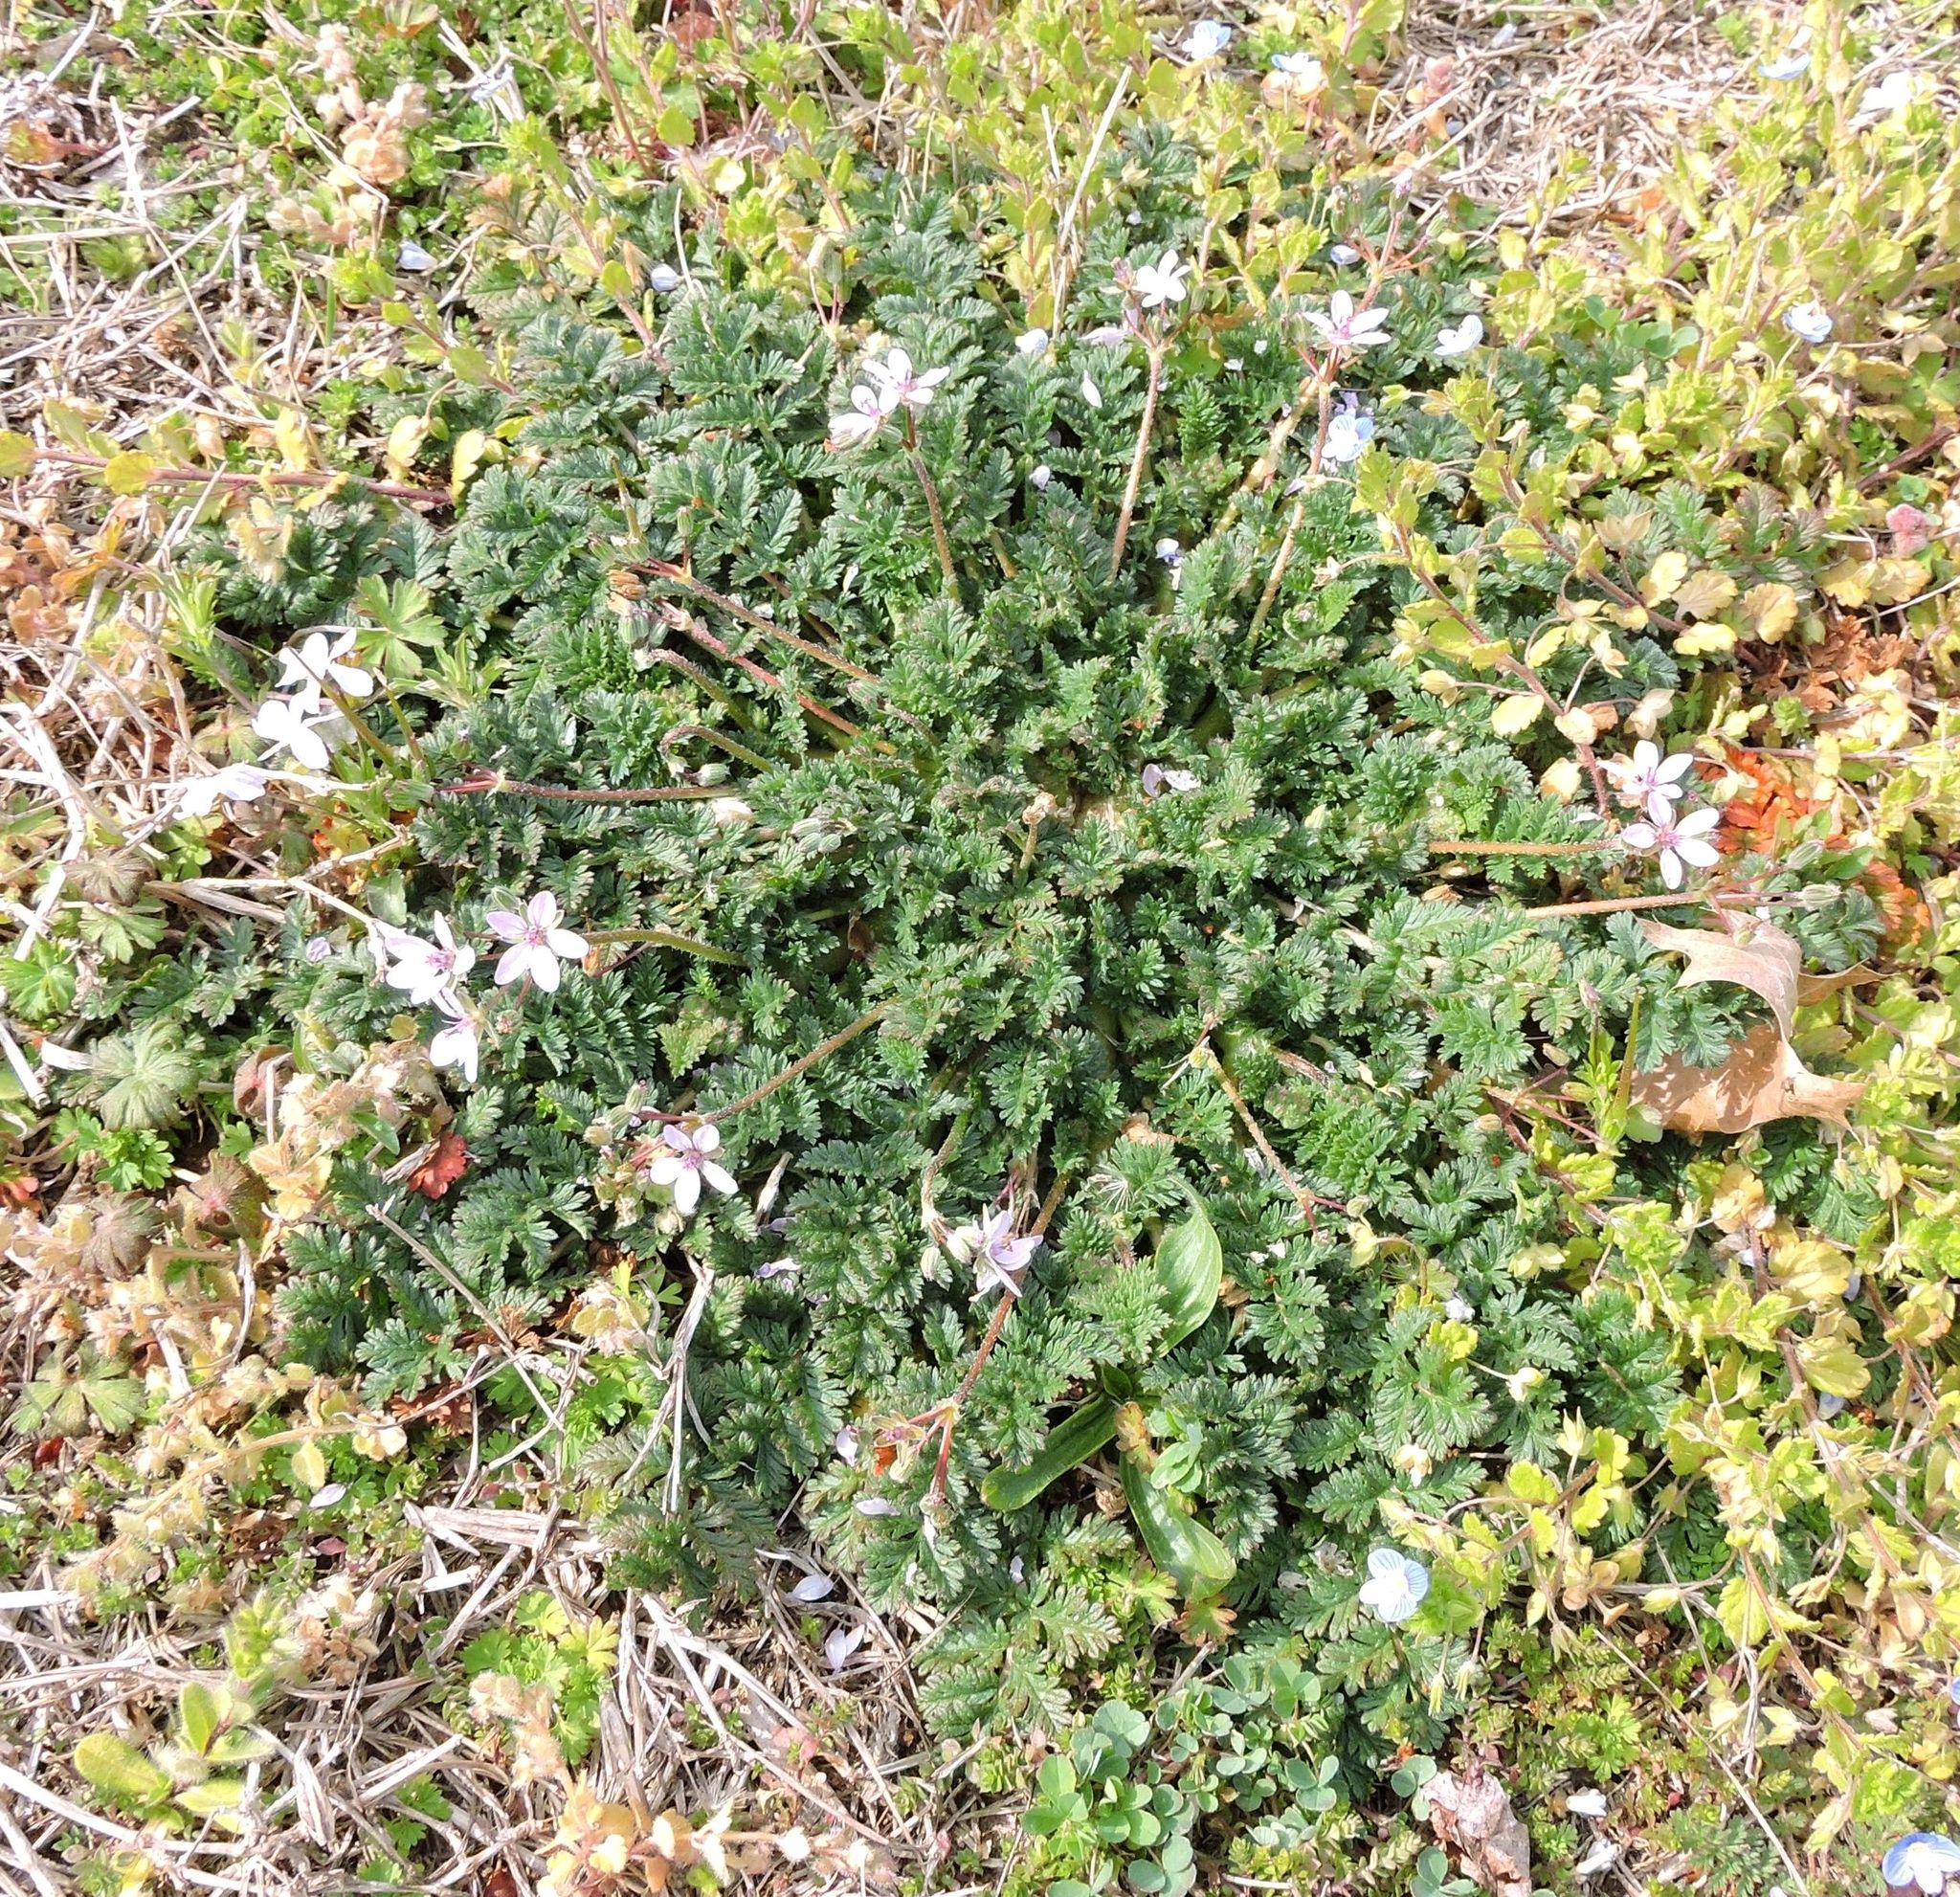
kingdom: Plantae
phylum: Tracheophyta
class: Magnoliopsida
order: Geraniales
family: Geraniaceae
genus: Erodium
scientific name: Erodium cicutarium
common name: Common stork's-bill
